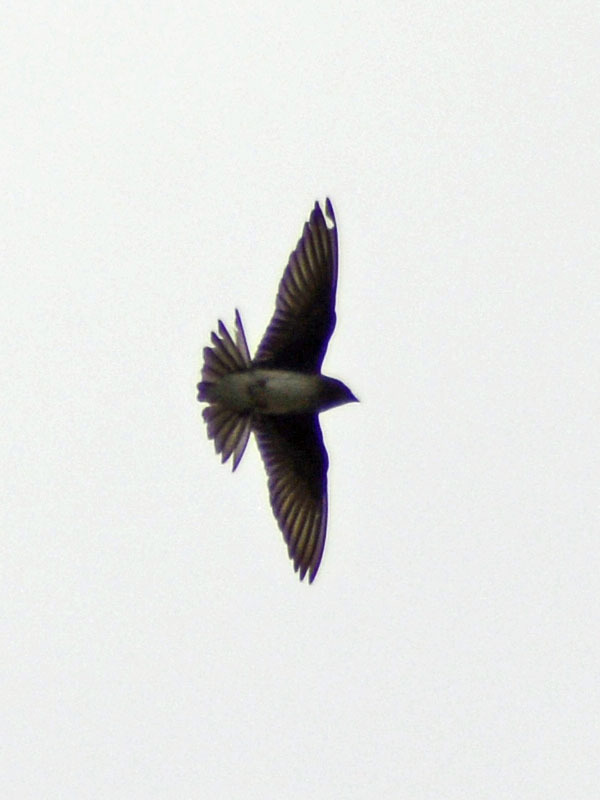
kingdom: Animalia
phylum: Chordata
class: Aves
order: Passeriformes
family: Hirundinidae
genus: Progne
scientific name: Progne chalybea
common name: Grey-breasted martin
